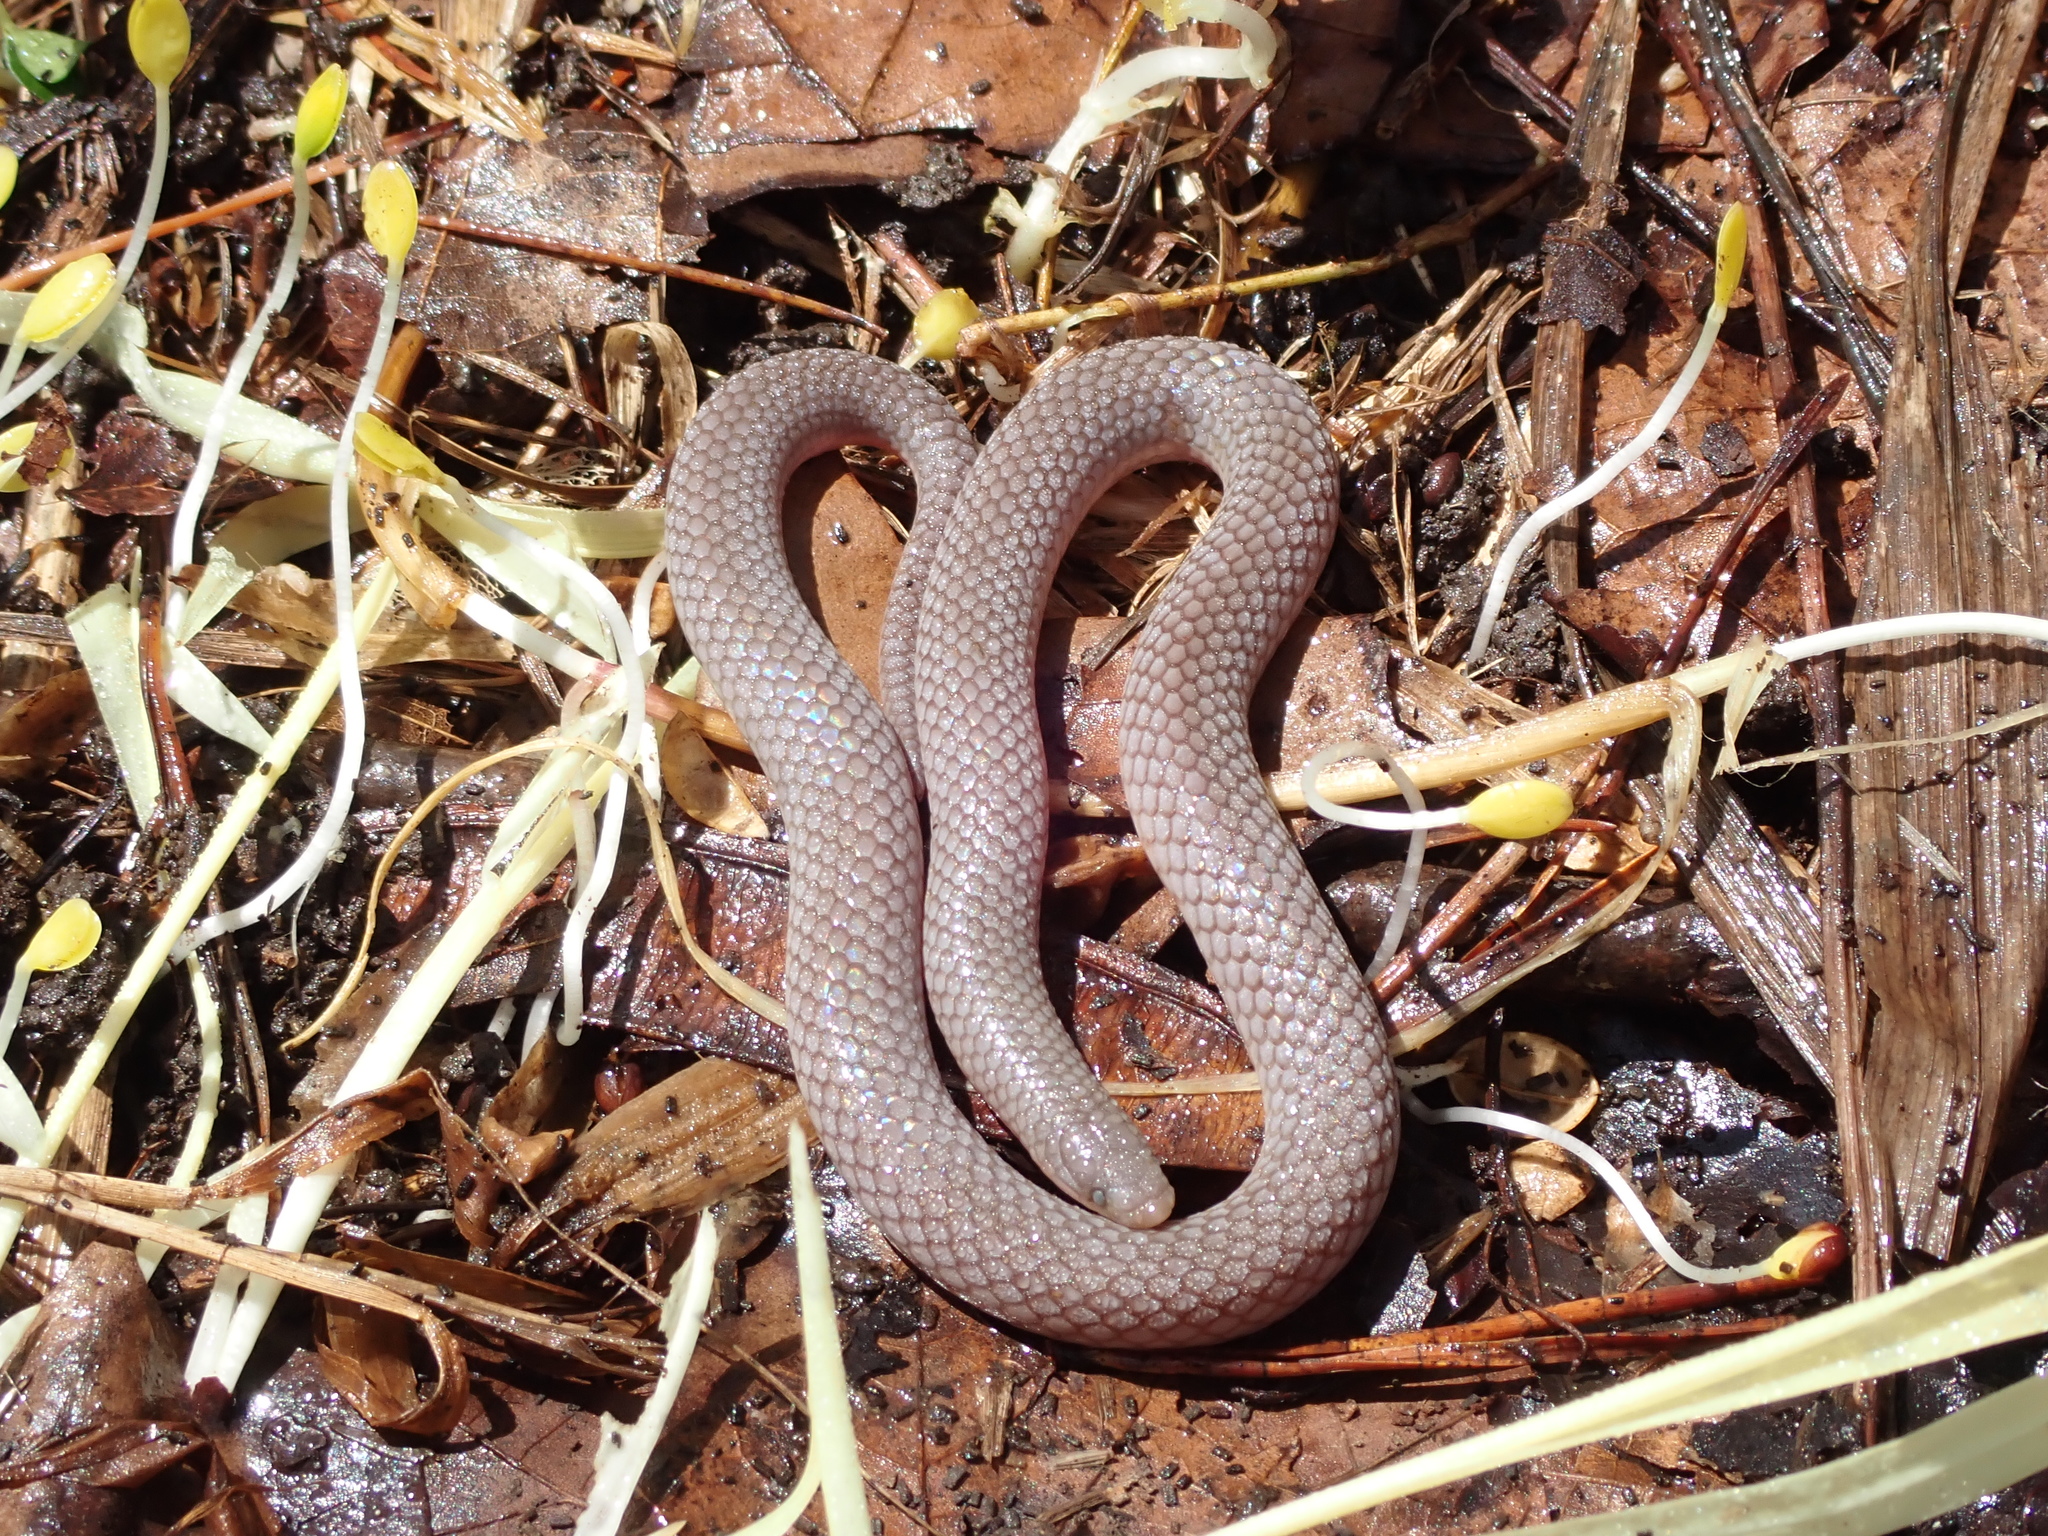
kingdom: Animalia
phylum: Chordata
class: Squamata
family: Colubridae
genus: Carphophis
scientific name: Carphophis amoenus
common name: Eastern worm snake
